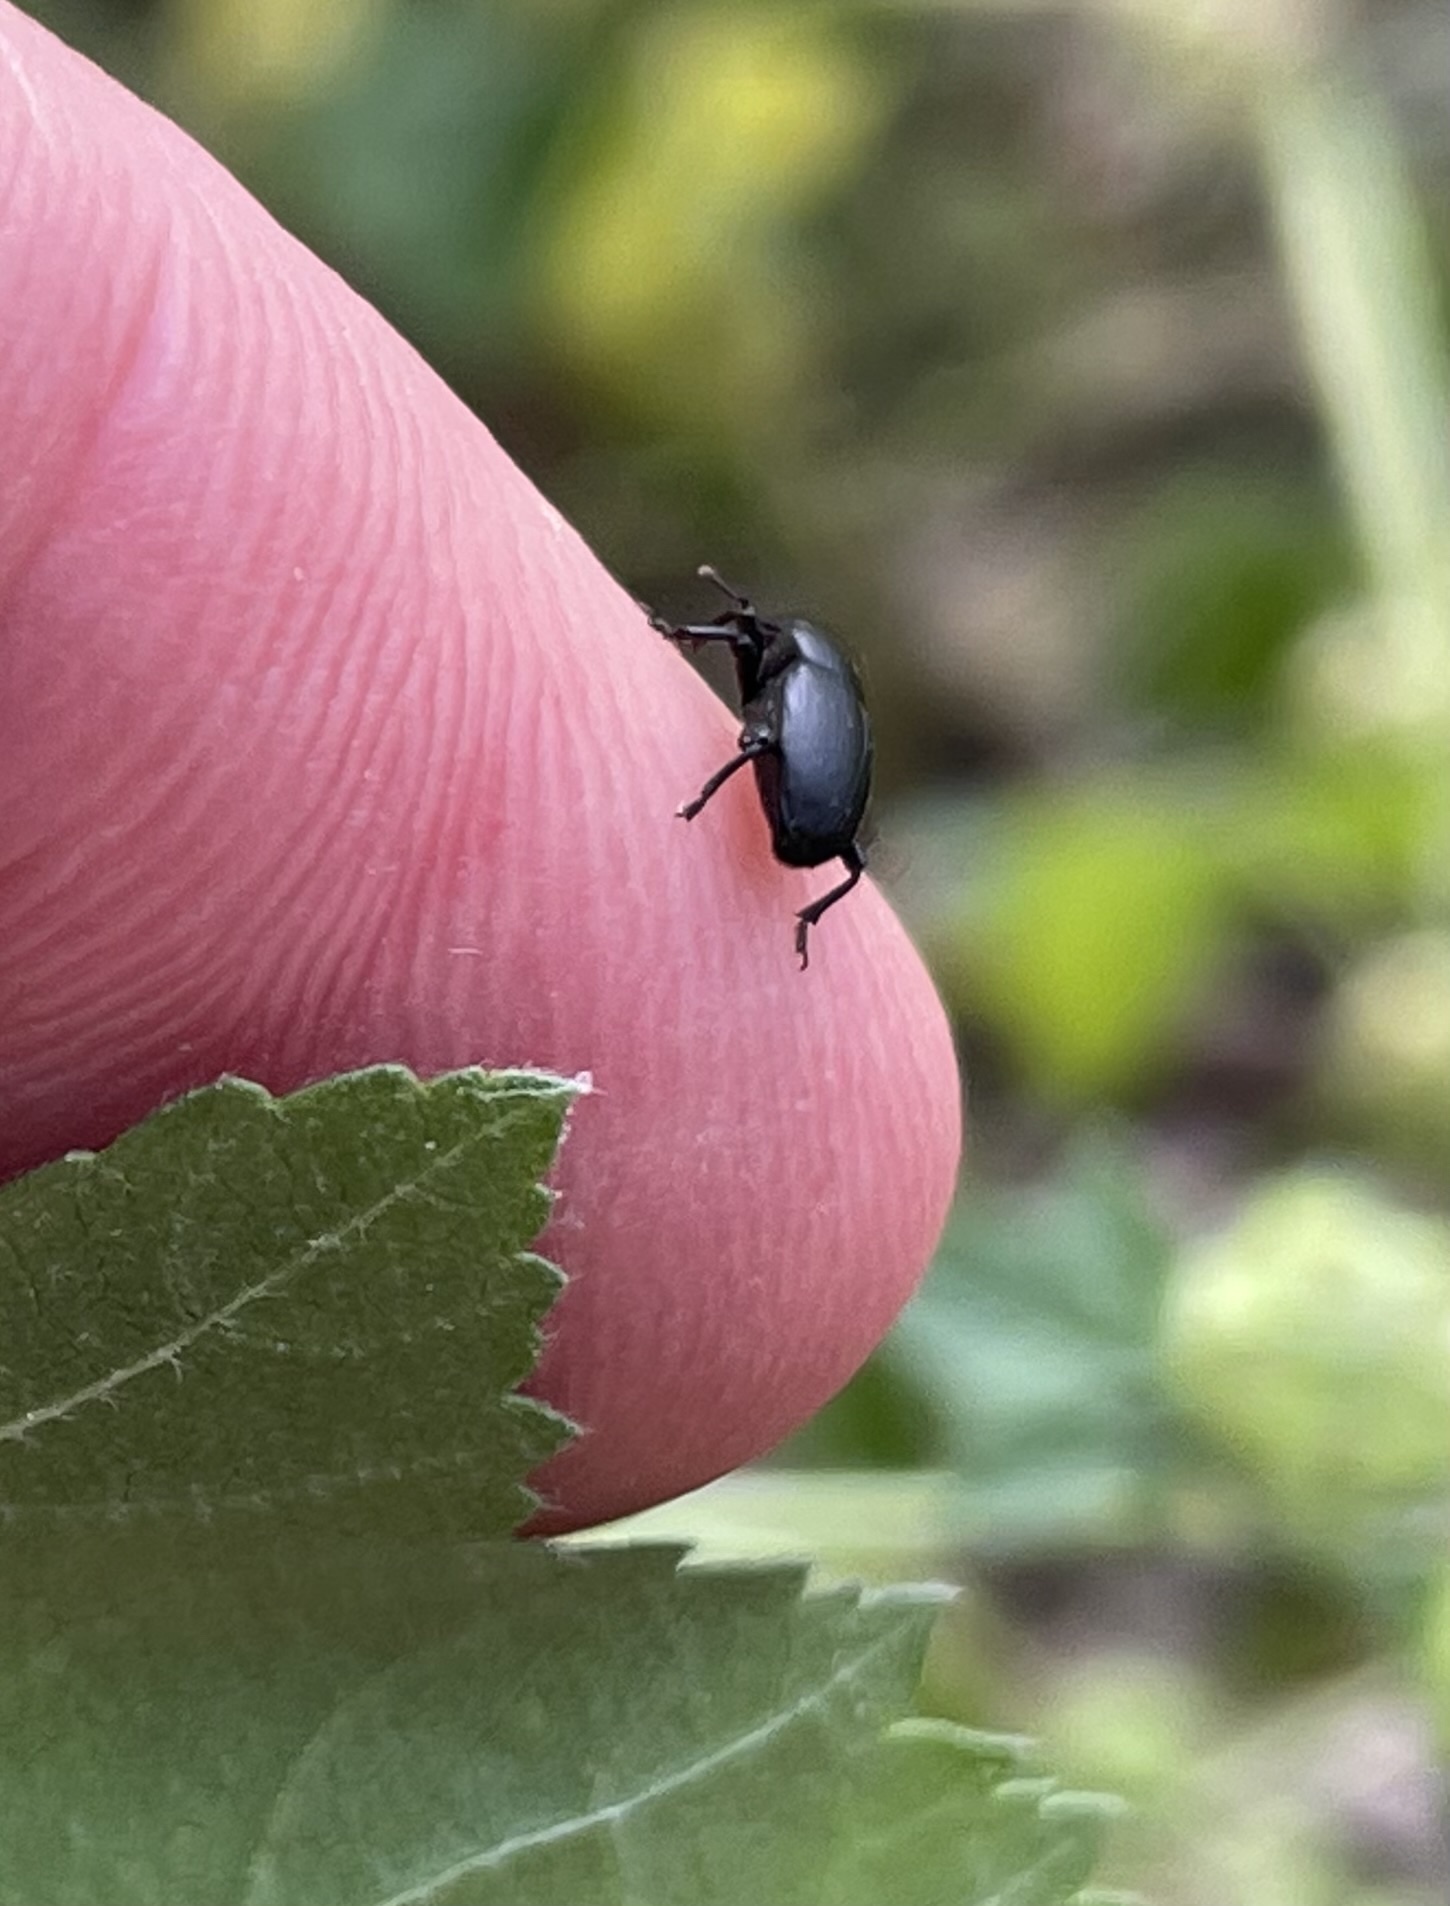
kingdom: Animalia
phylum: Arthropoda
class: Insecta
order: Coleoptera
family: Curculionidae
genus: Malvaevora
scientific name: Malvaevora timida
